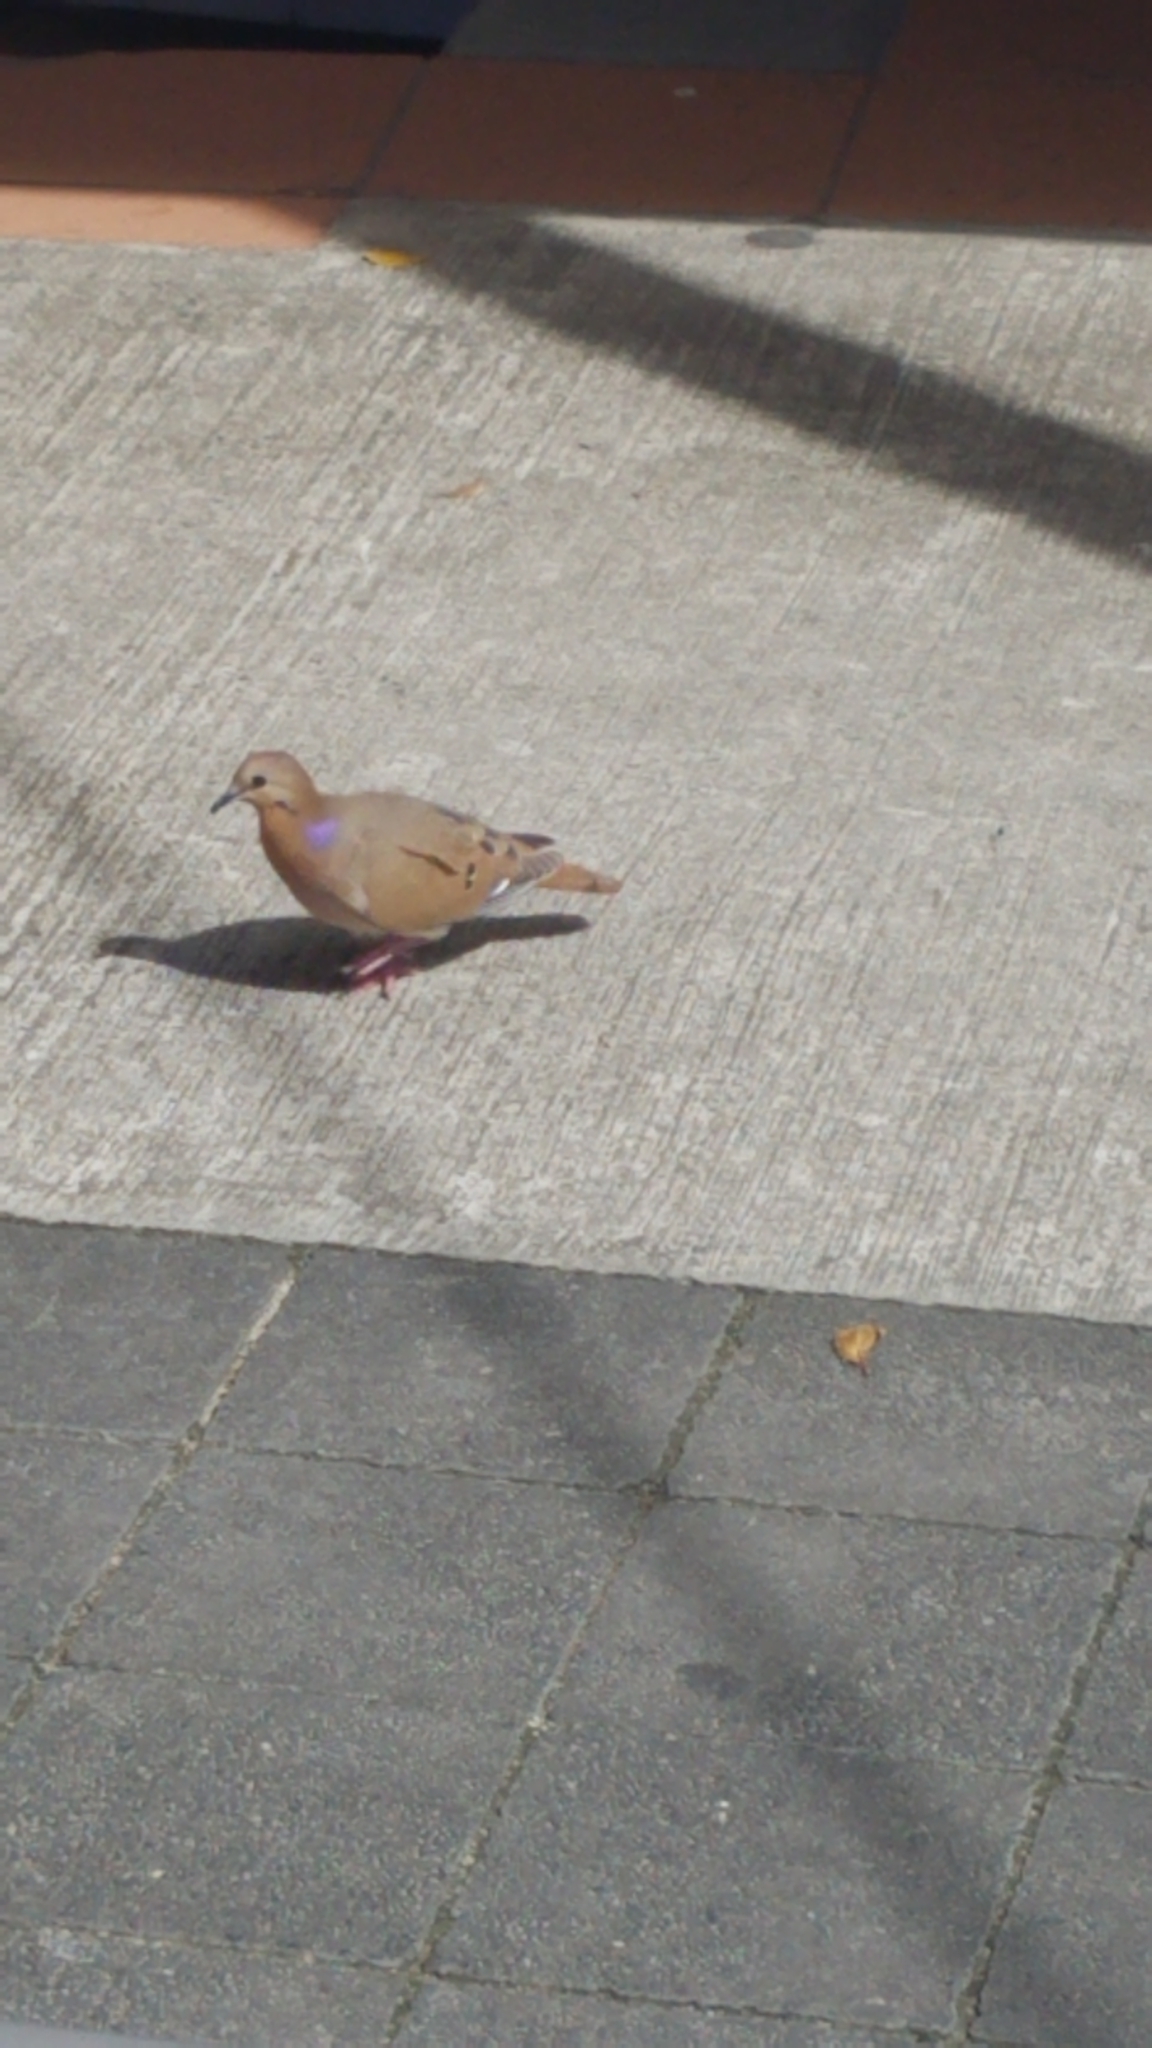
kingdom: Animalia
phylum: Chordata
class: Aves
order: Columbiformes
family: Columbidae
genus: Zenaida
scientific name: Zenaida aurita
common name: Zenaida dove
